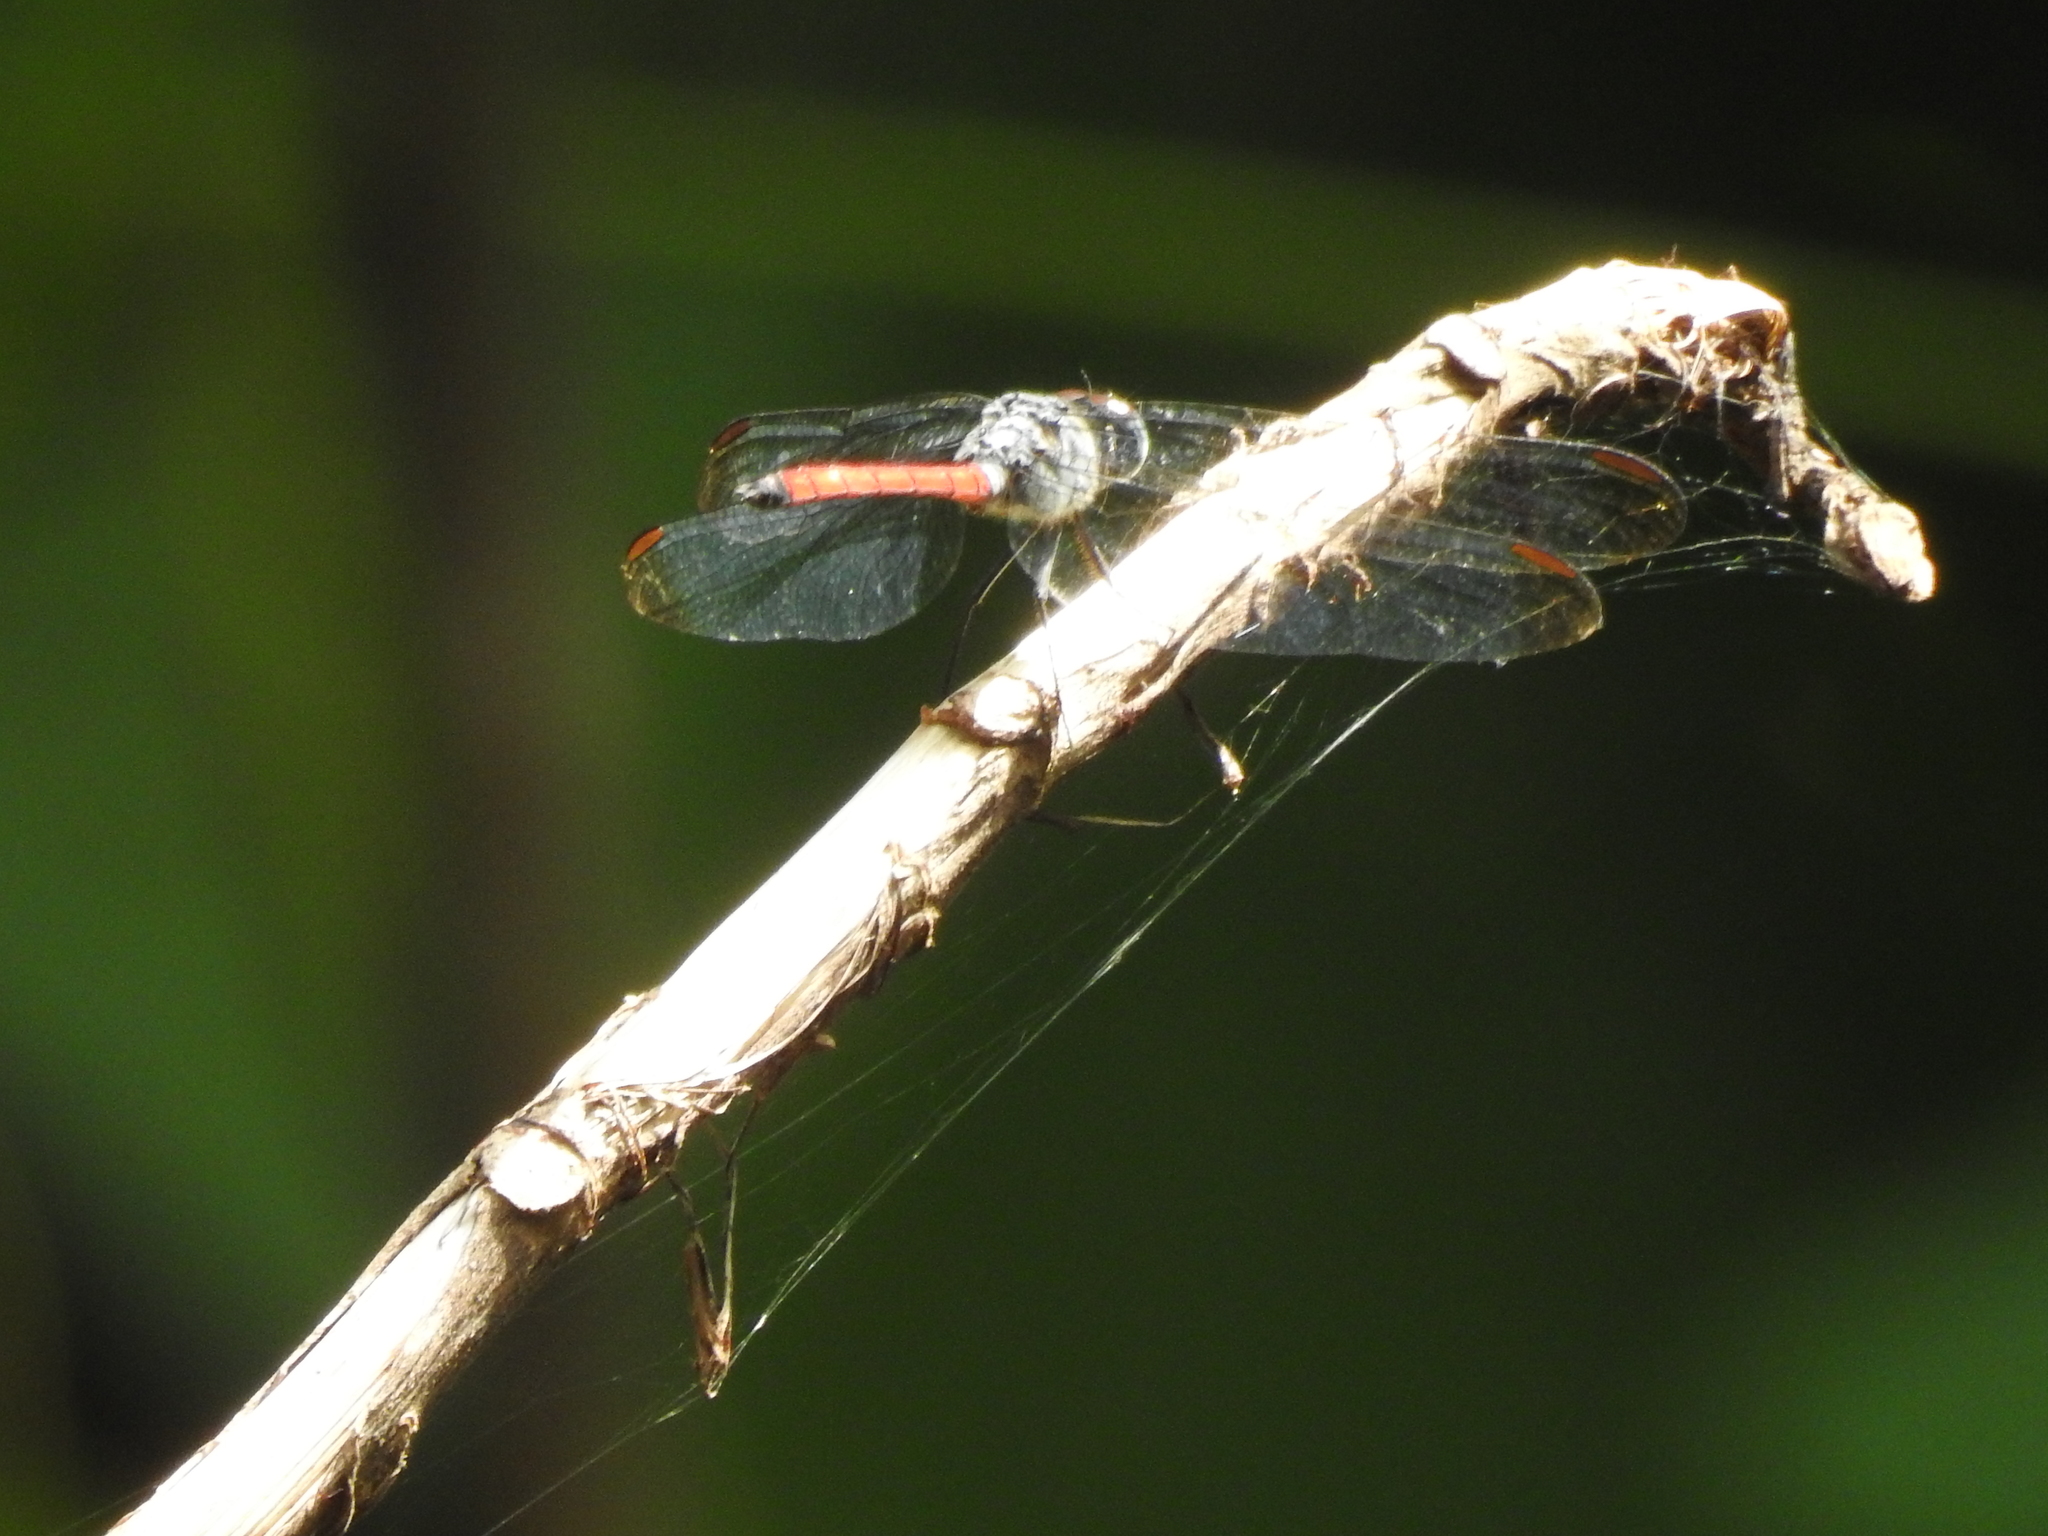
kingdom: Animalia
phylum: Arthropoda
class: Insecta
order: Odonata
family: Libellulidae
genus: Lathrecista
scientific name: Lathrecista asiatica
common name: Scarlet grenadier
